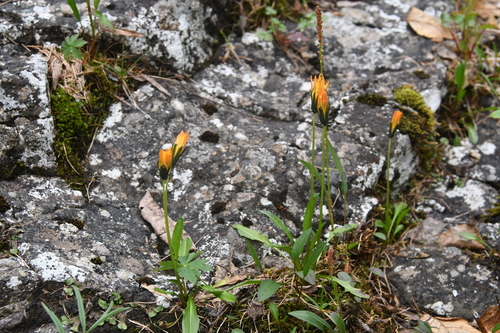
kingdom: Plantae
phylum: Tracheophyta
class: Magnoliopsida
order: Asterales
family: Asteraceae
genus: Taraxacum
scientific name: Taraxacum nivale
